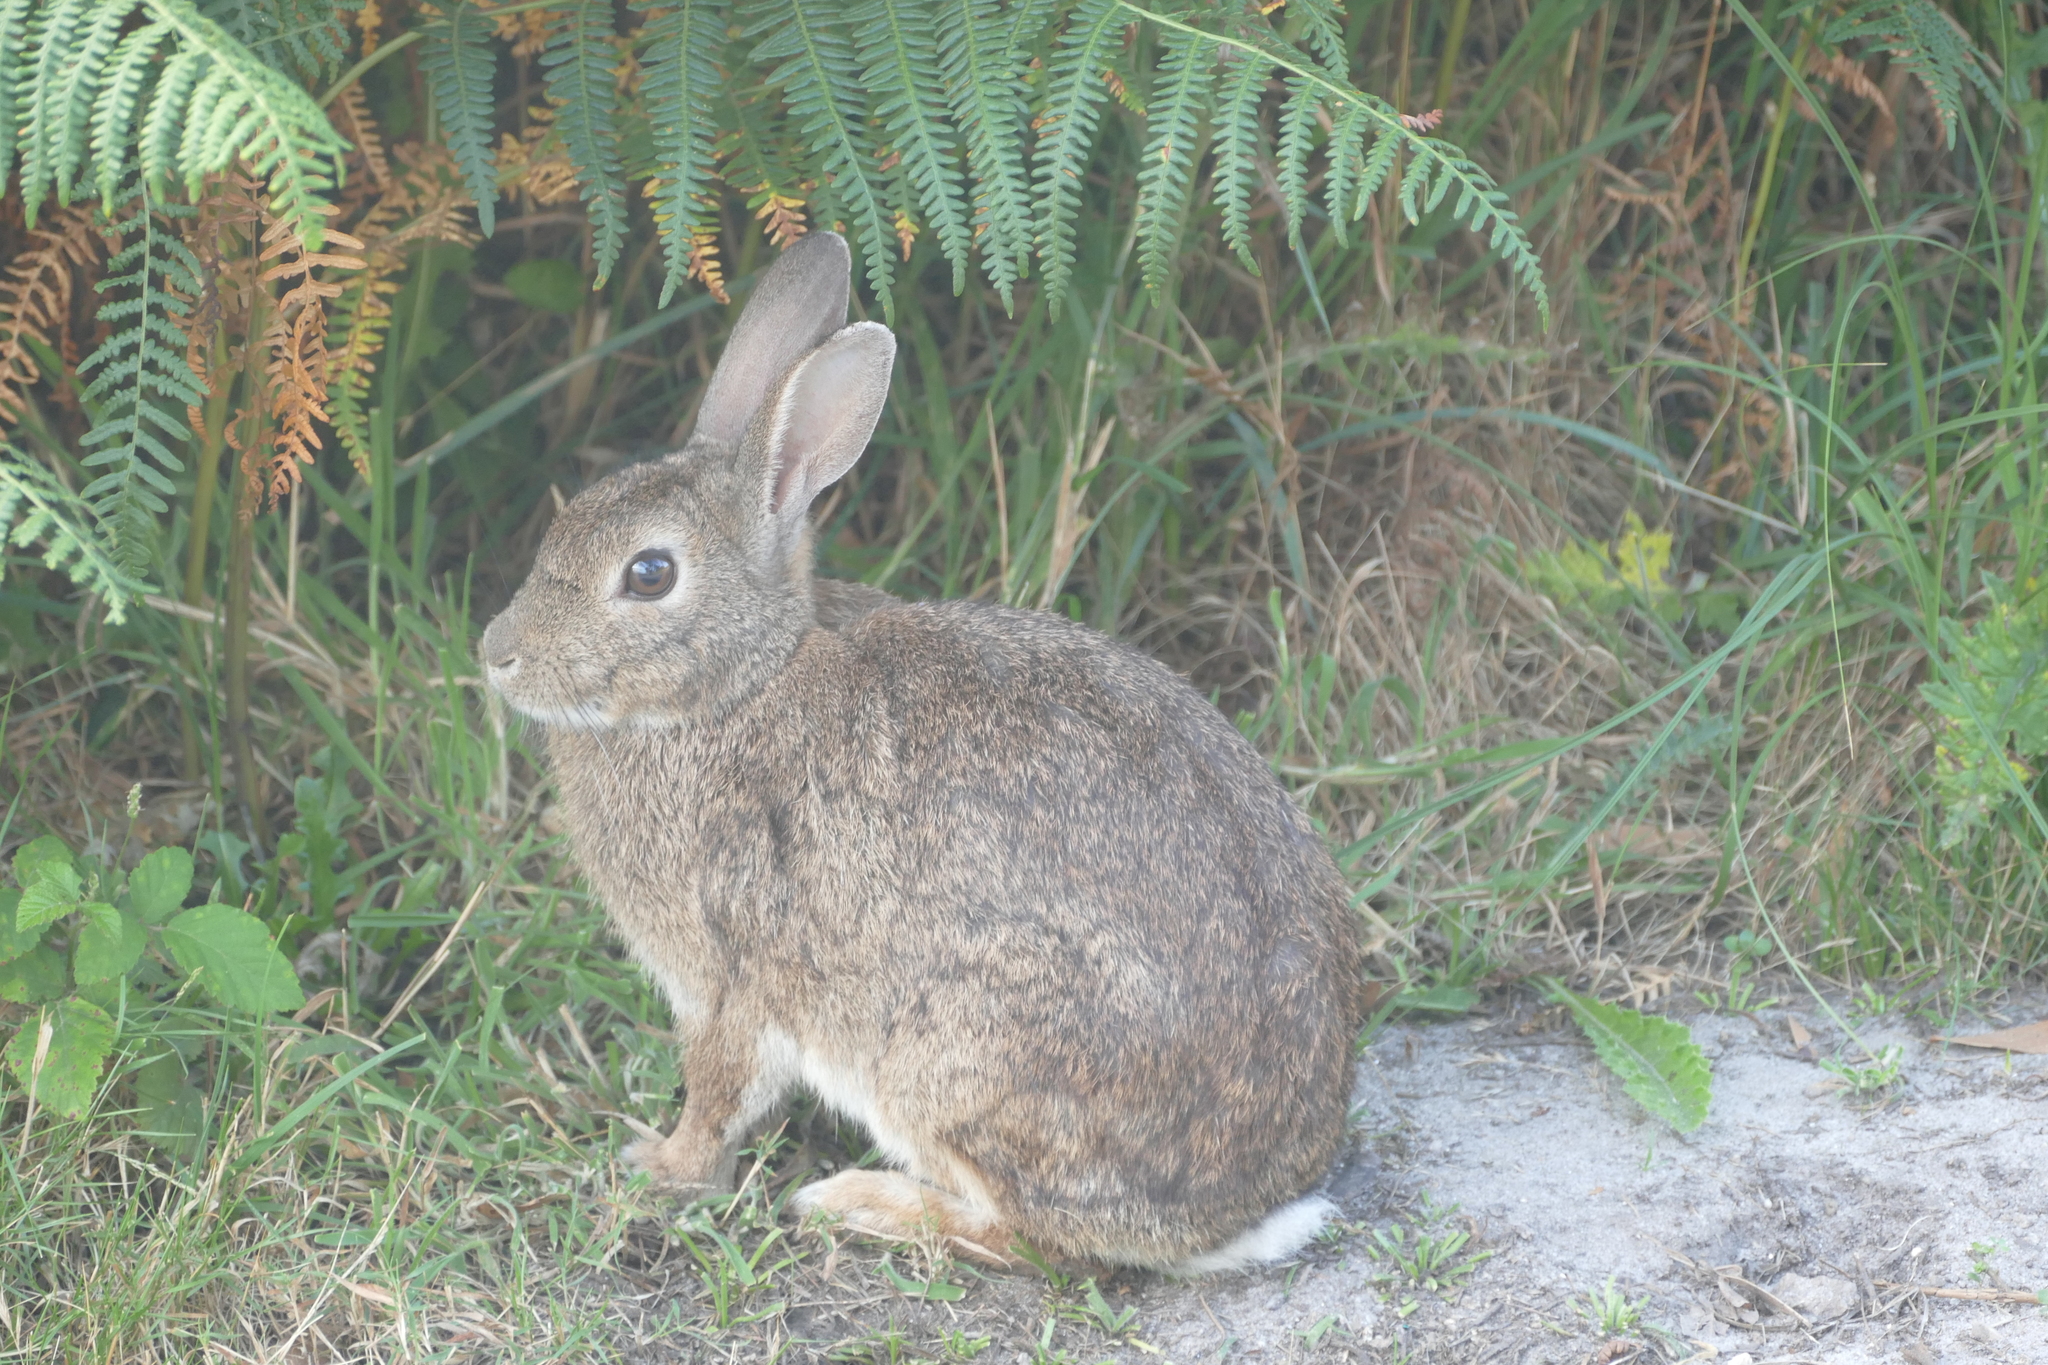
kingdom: Animalia
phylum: Chordata
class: Mammalia
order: Lagomorpha
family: Leporidae
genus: Oryctolagus
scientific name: Oryctolagus cuniculus
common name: European rabbit
